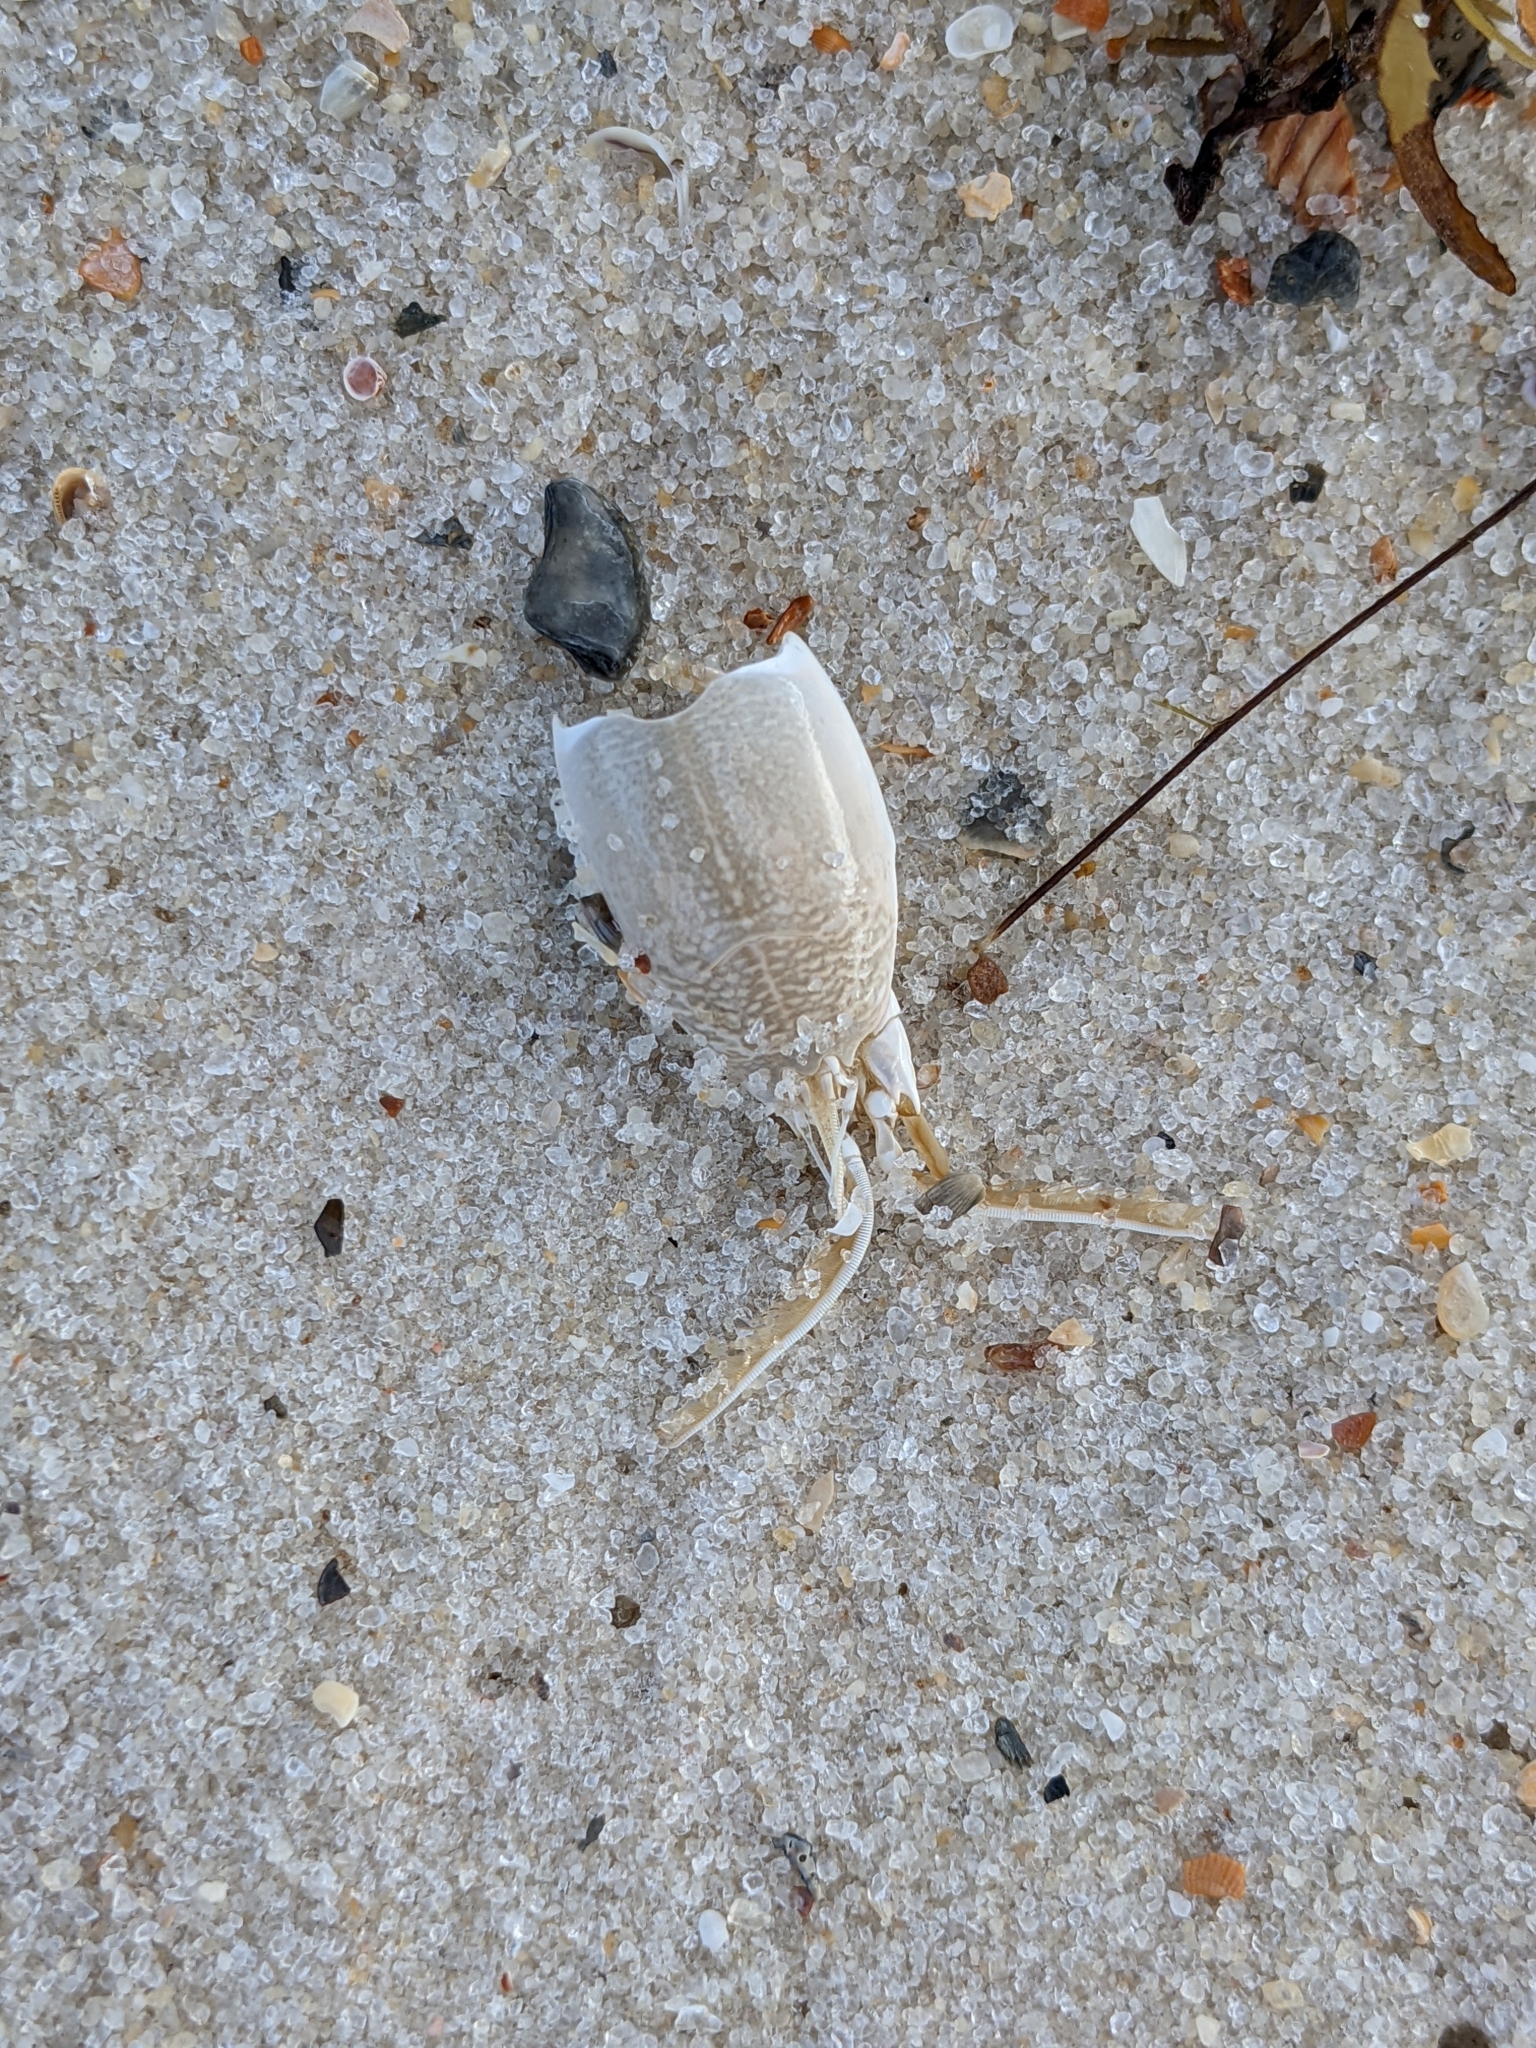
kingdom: Animalia
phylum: Arthropoda
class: Malacostraca
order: Decapoda
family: Hippidae
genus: Emerita
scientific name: Emerita talpoida
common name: Atlantic sand crab
